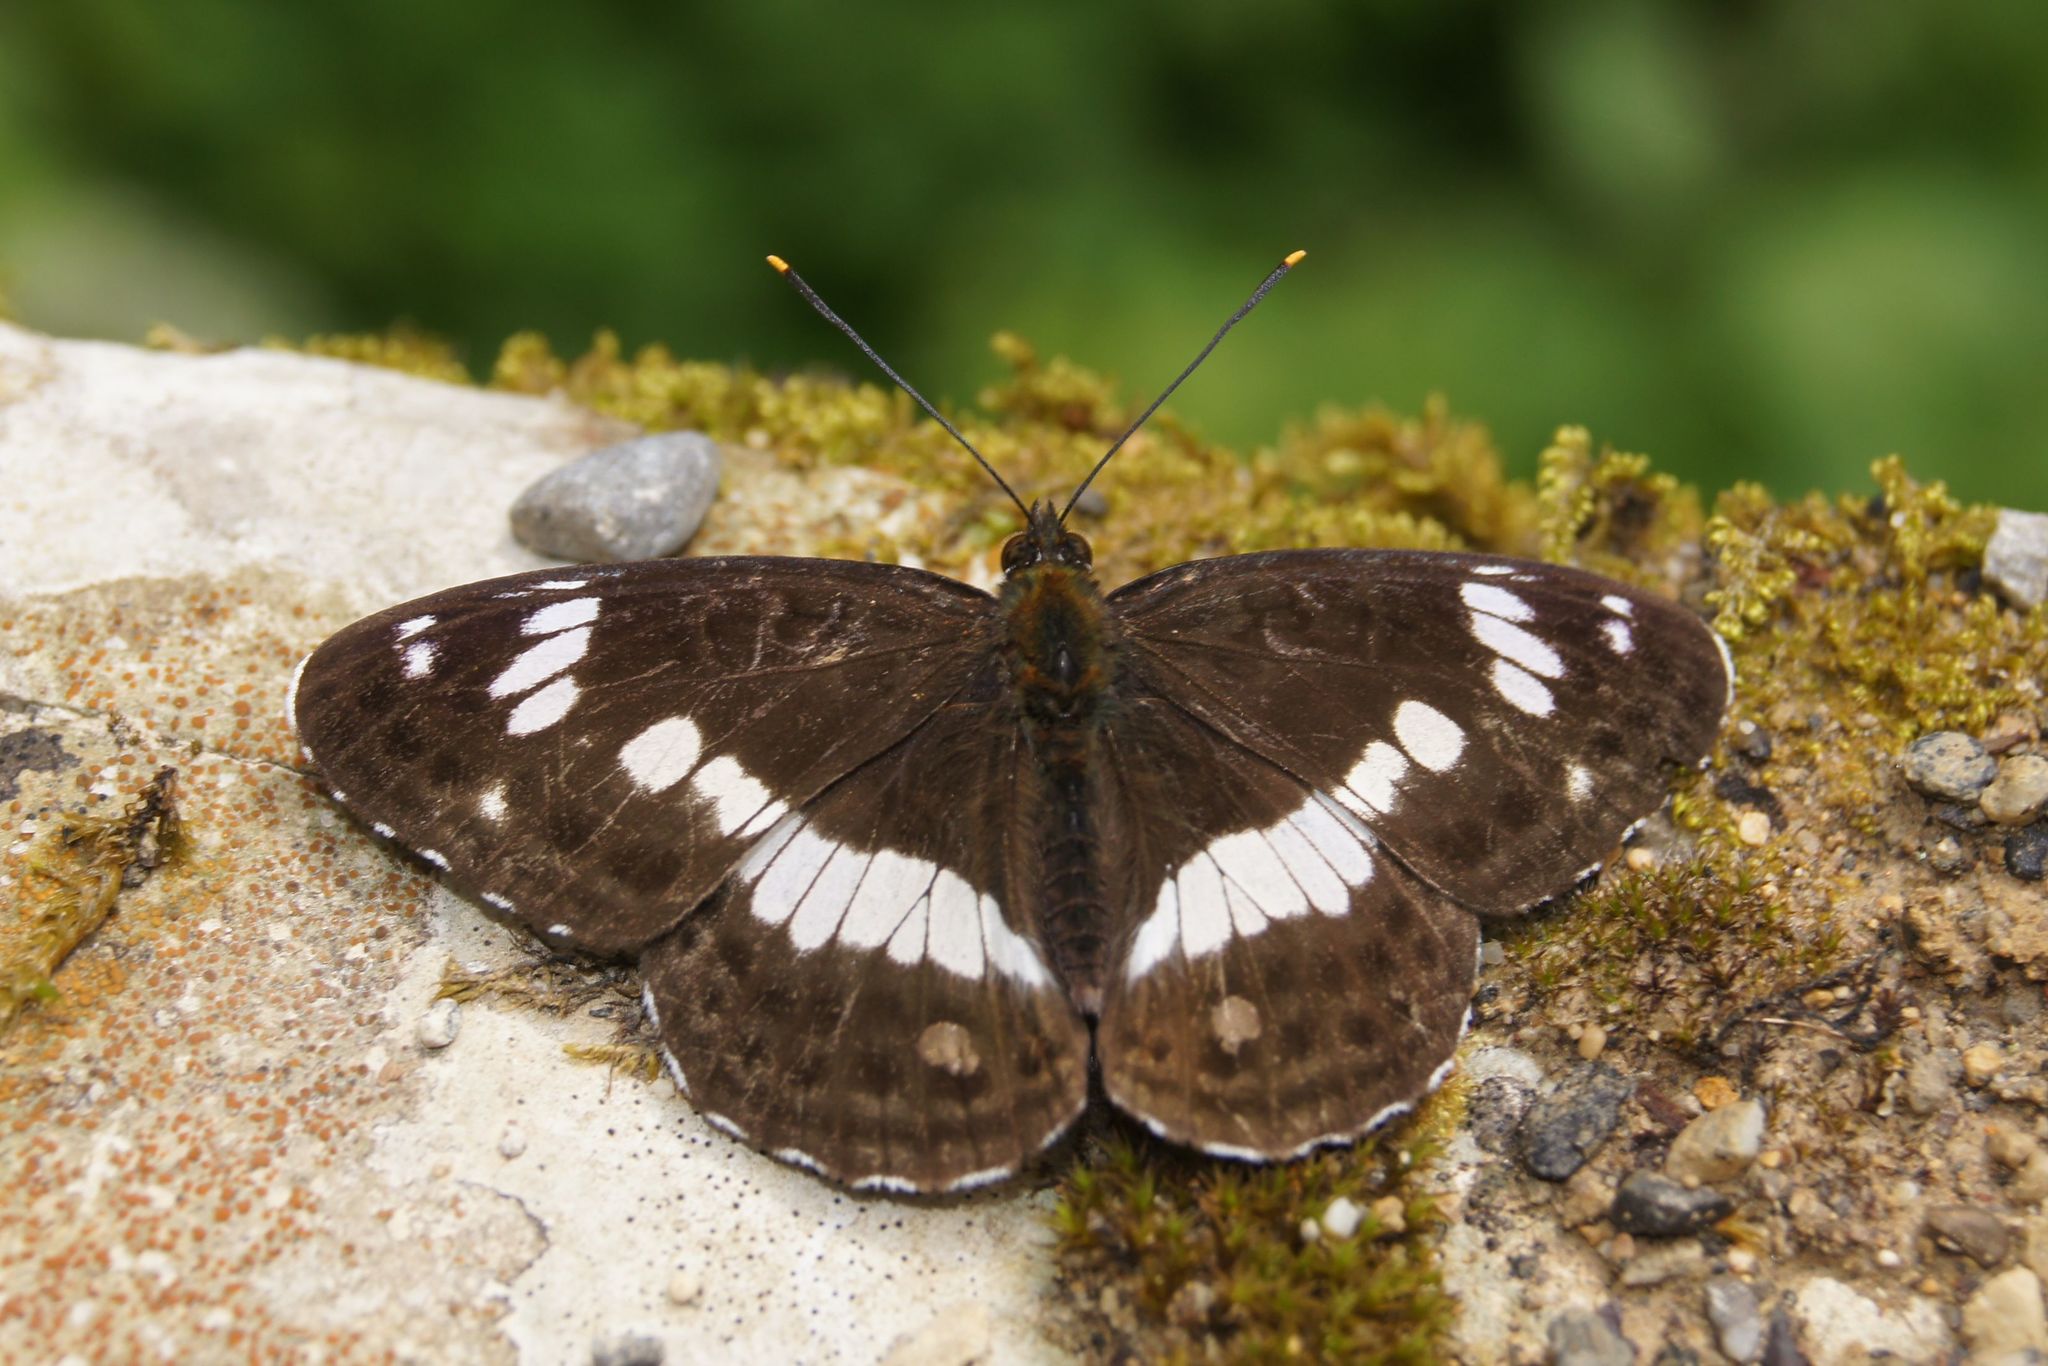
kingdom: Animalia
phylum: Arthropoda
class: Insecta
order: Lepidoptera
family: Nymphalidae
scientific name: Nymphalidae
